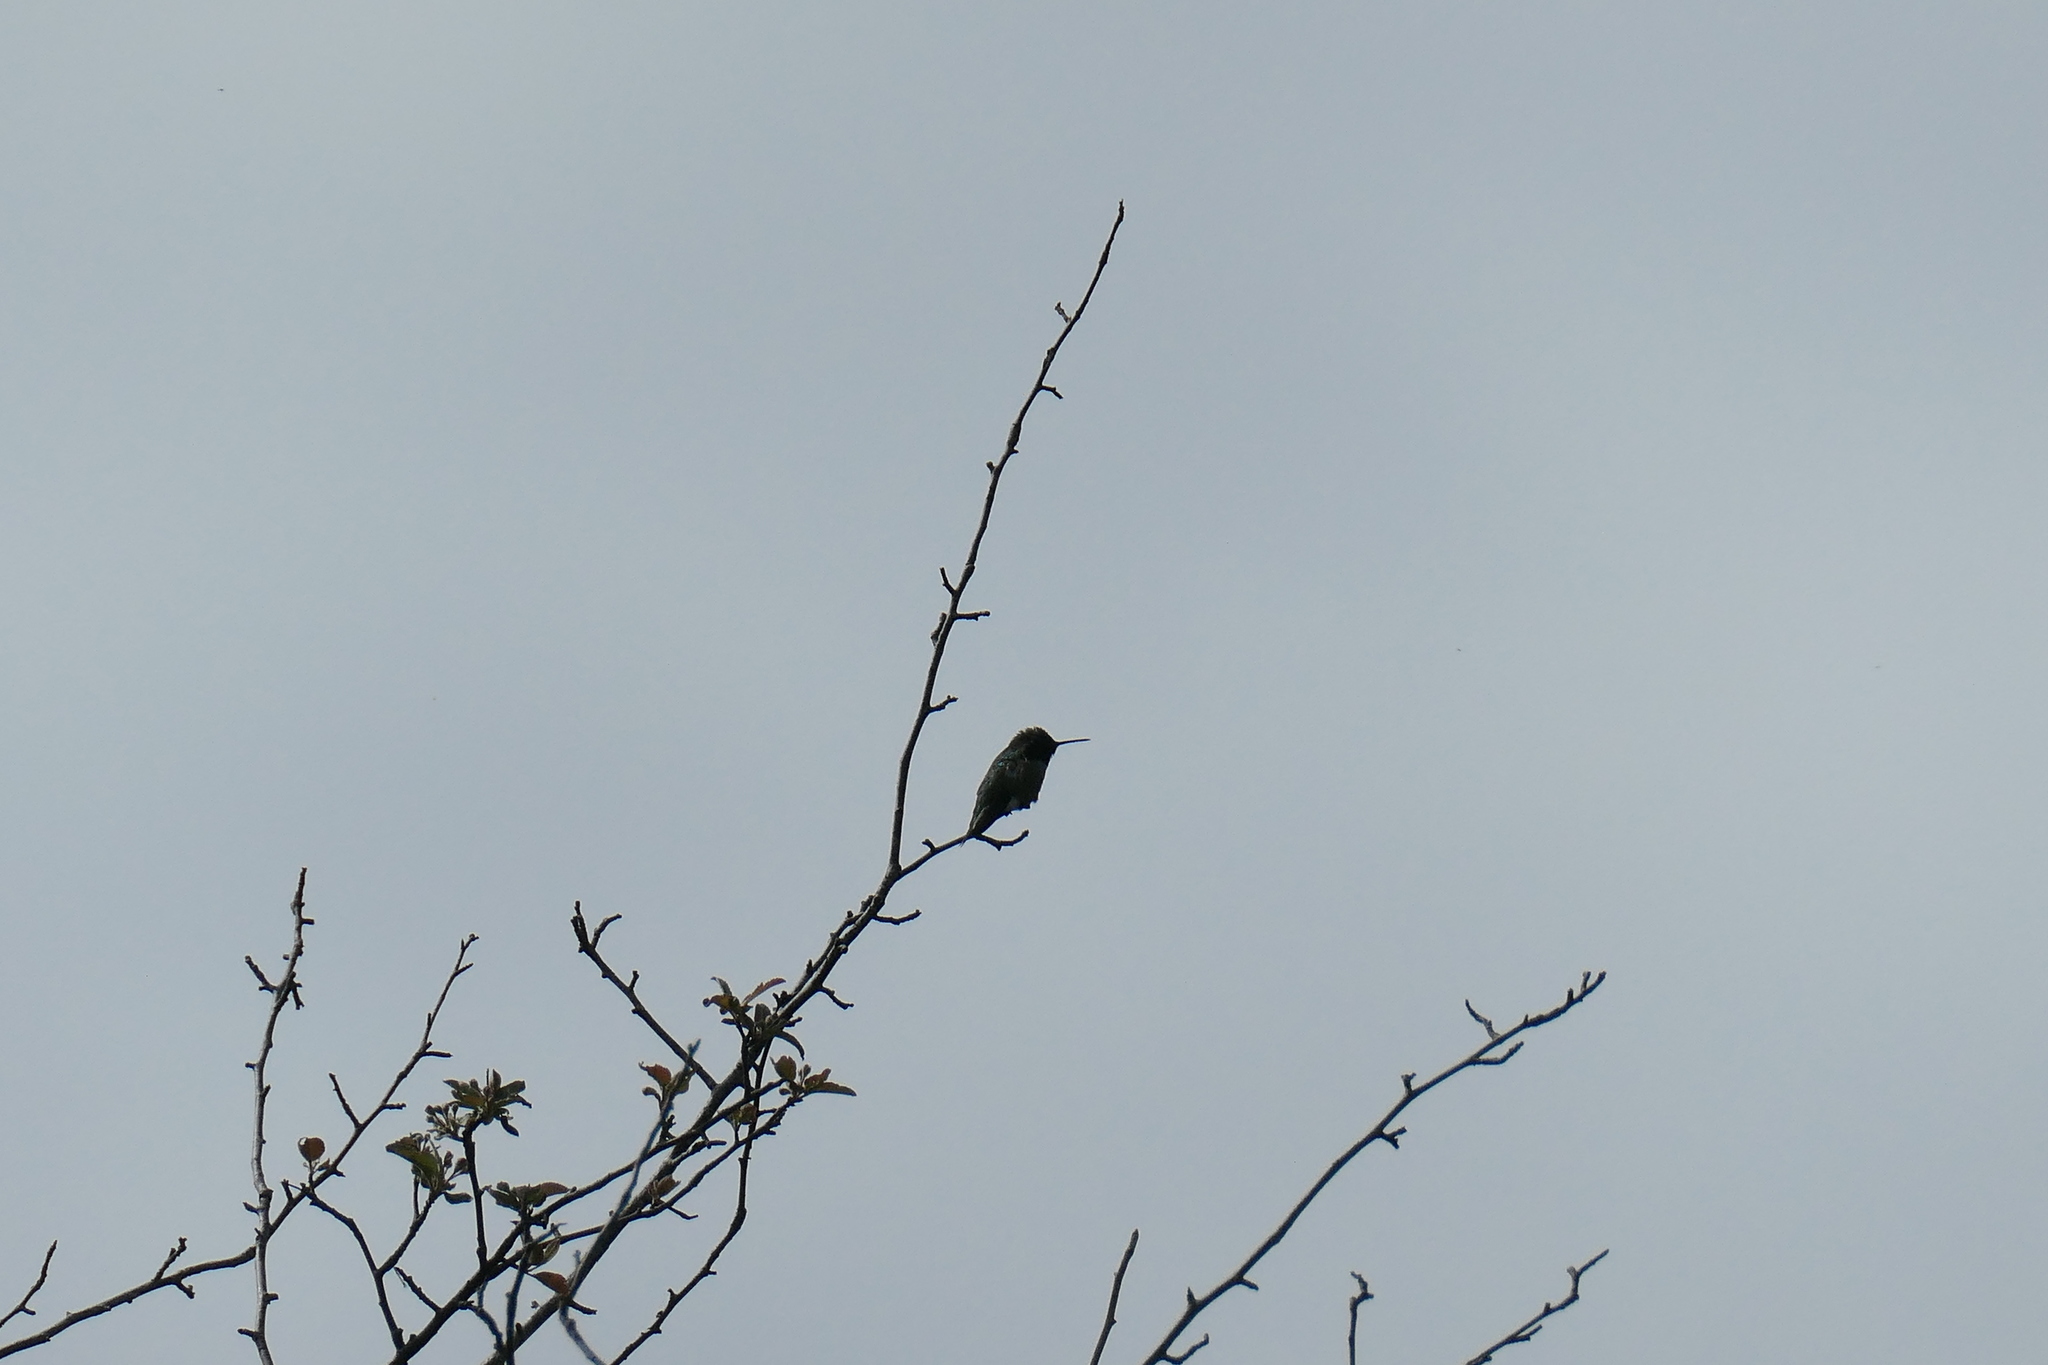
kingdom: Animalia
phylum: Chordata
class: Aves
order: Apodiformes
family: Trochilidae
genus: Calypte
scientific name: Calypte anna
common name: Anna's hummingbird
